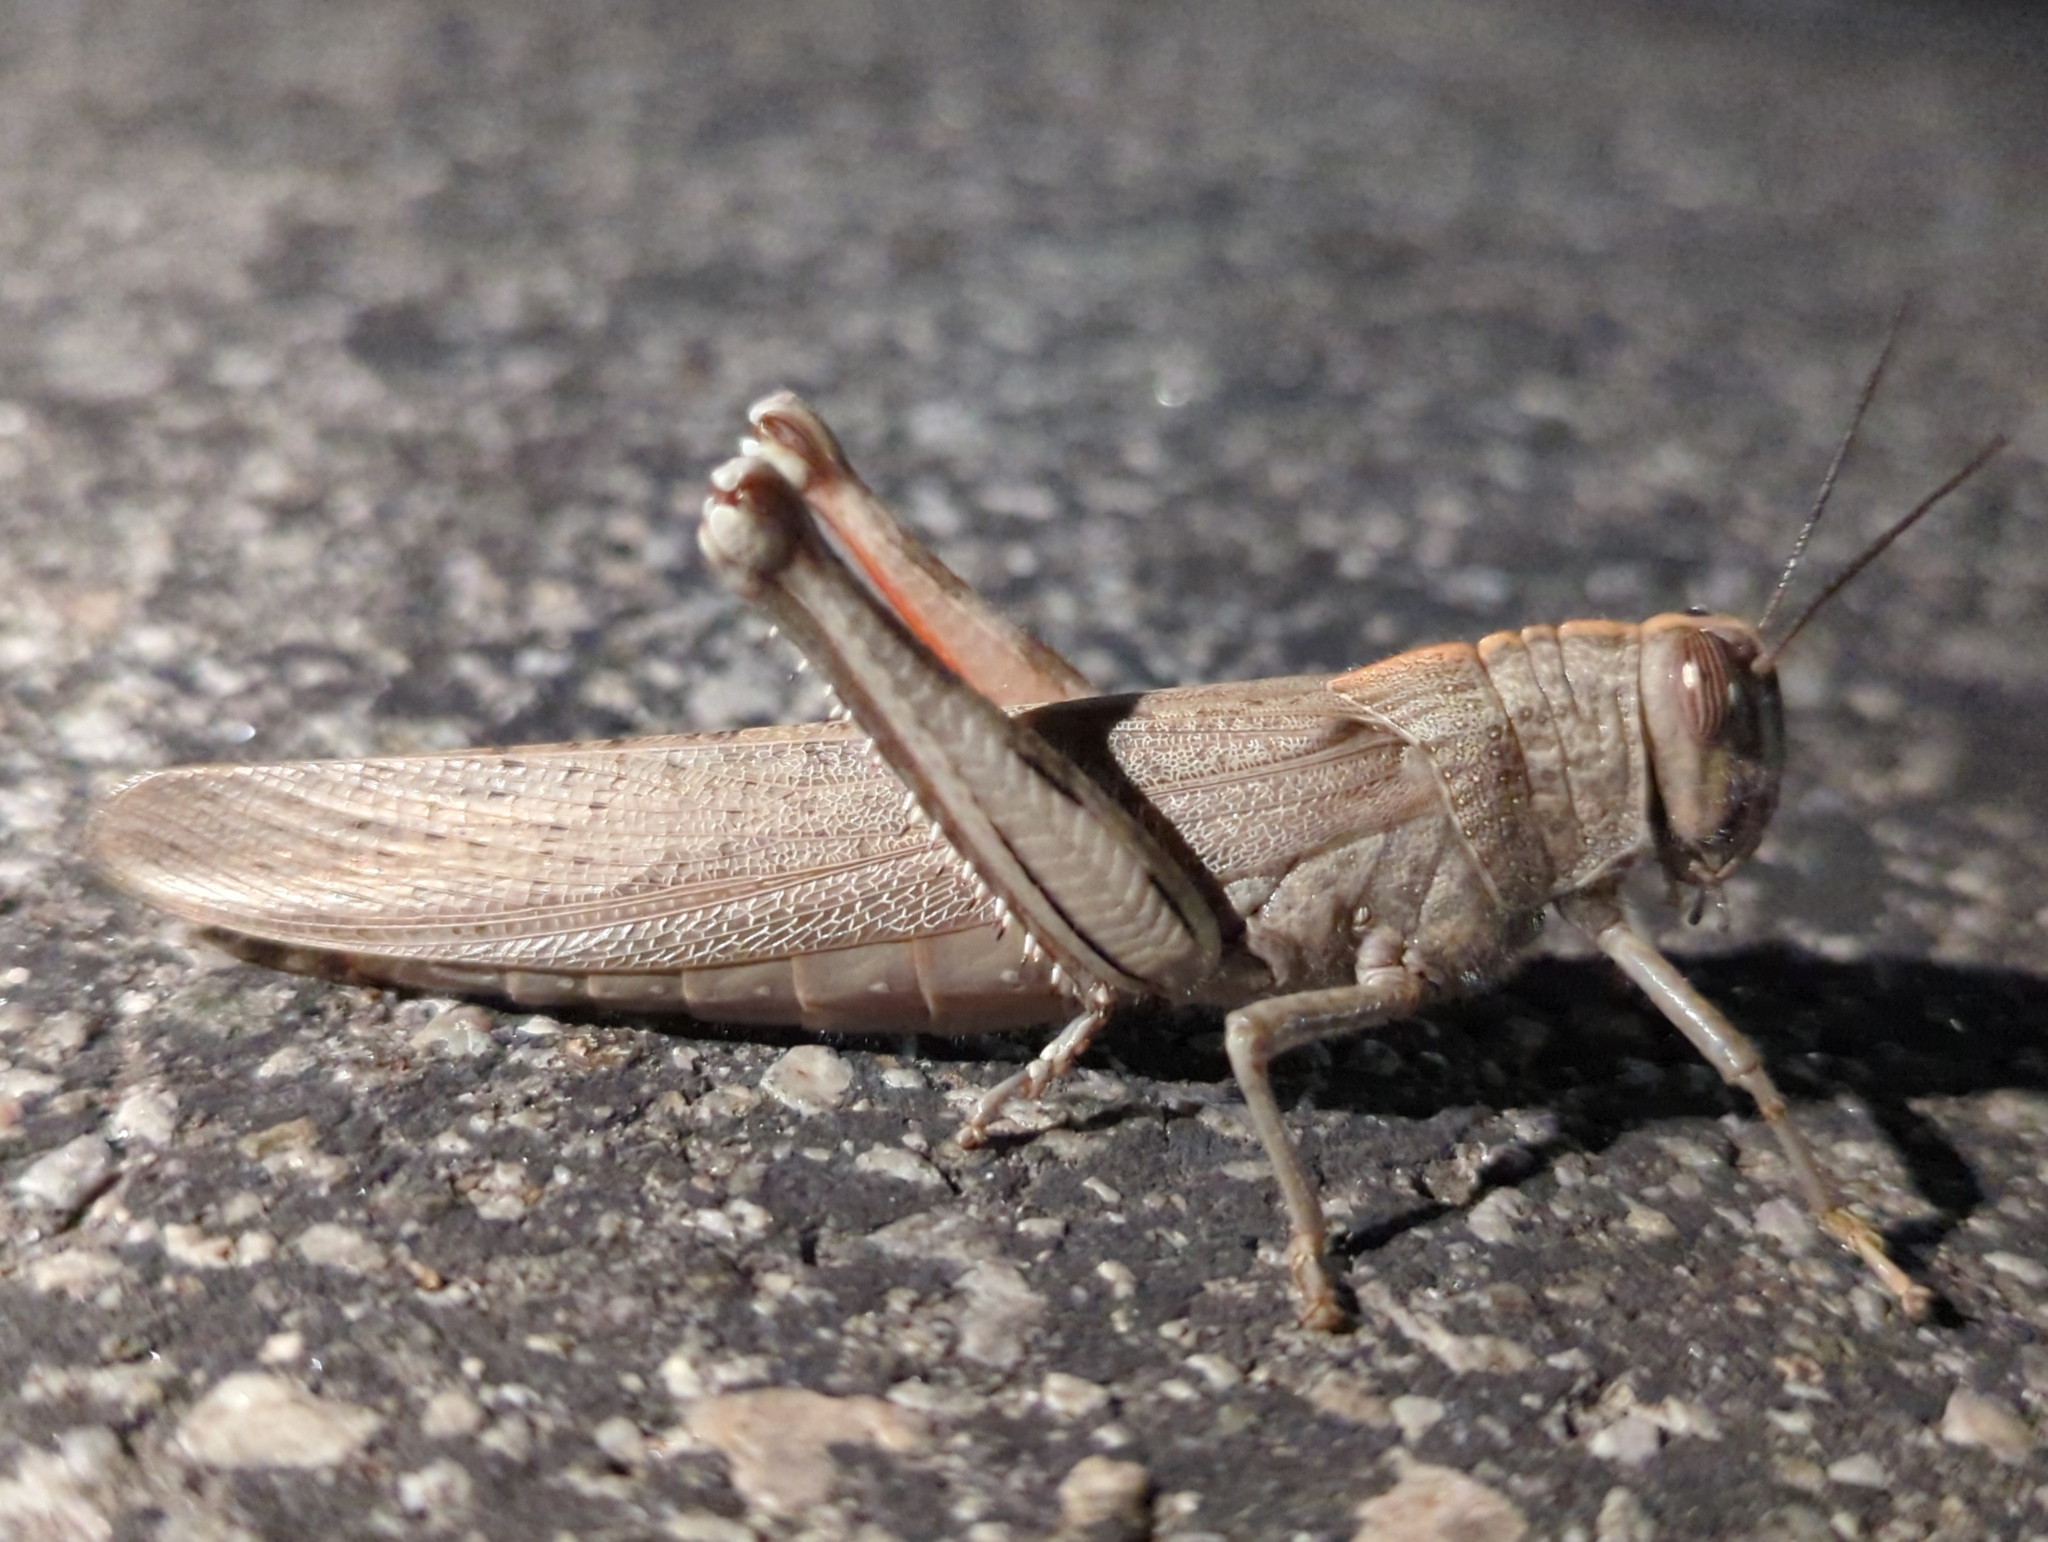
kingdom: Animalia
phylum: Arthropoda
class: Insecta
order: Orthoptera
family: Acrididae
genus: Anacridium
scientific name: Anacridium aegyptium
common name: Egyptian grasshopper
